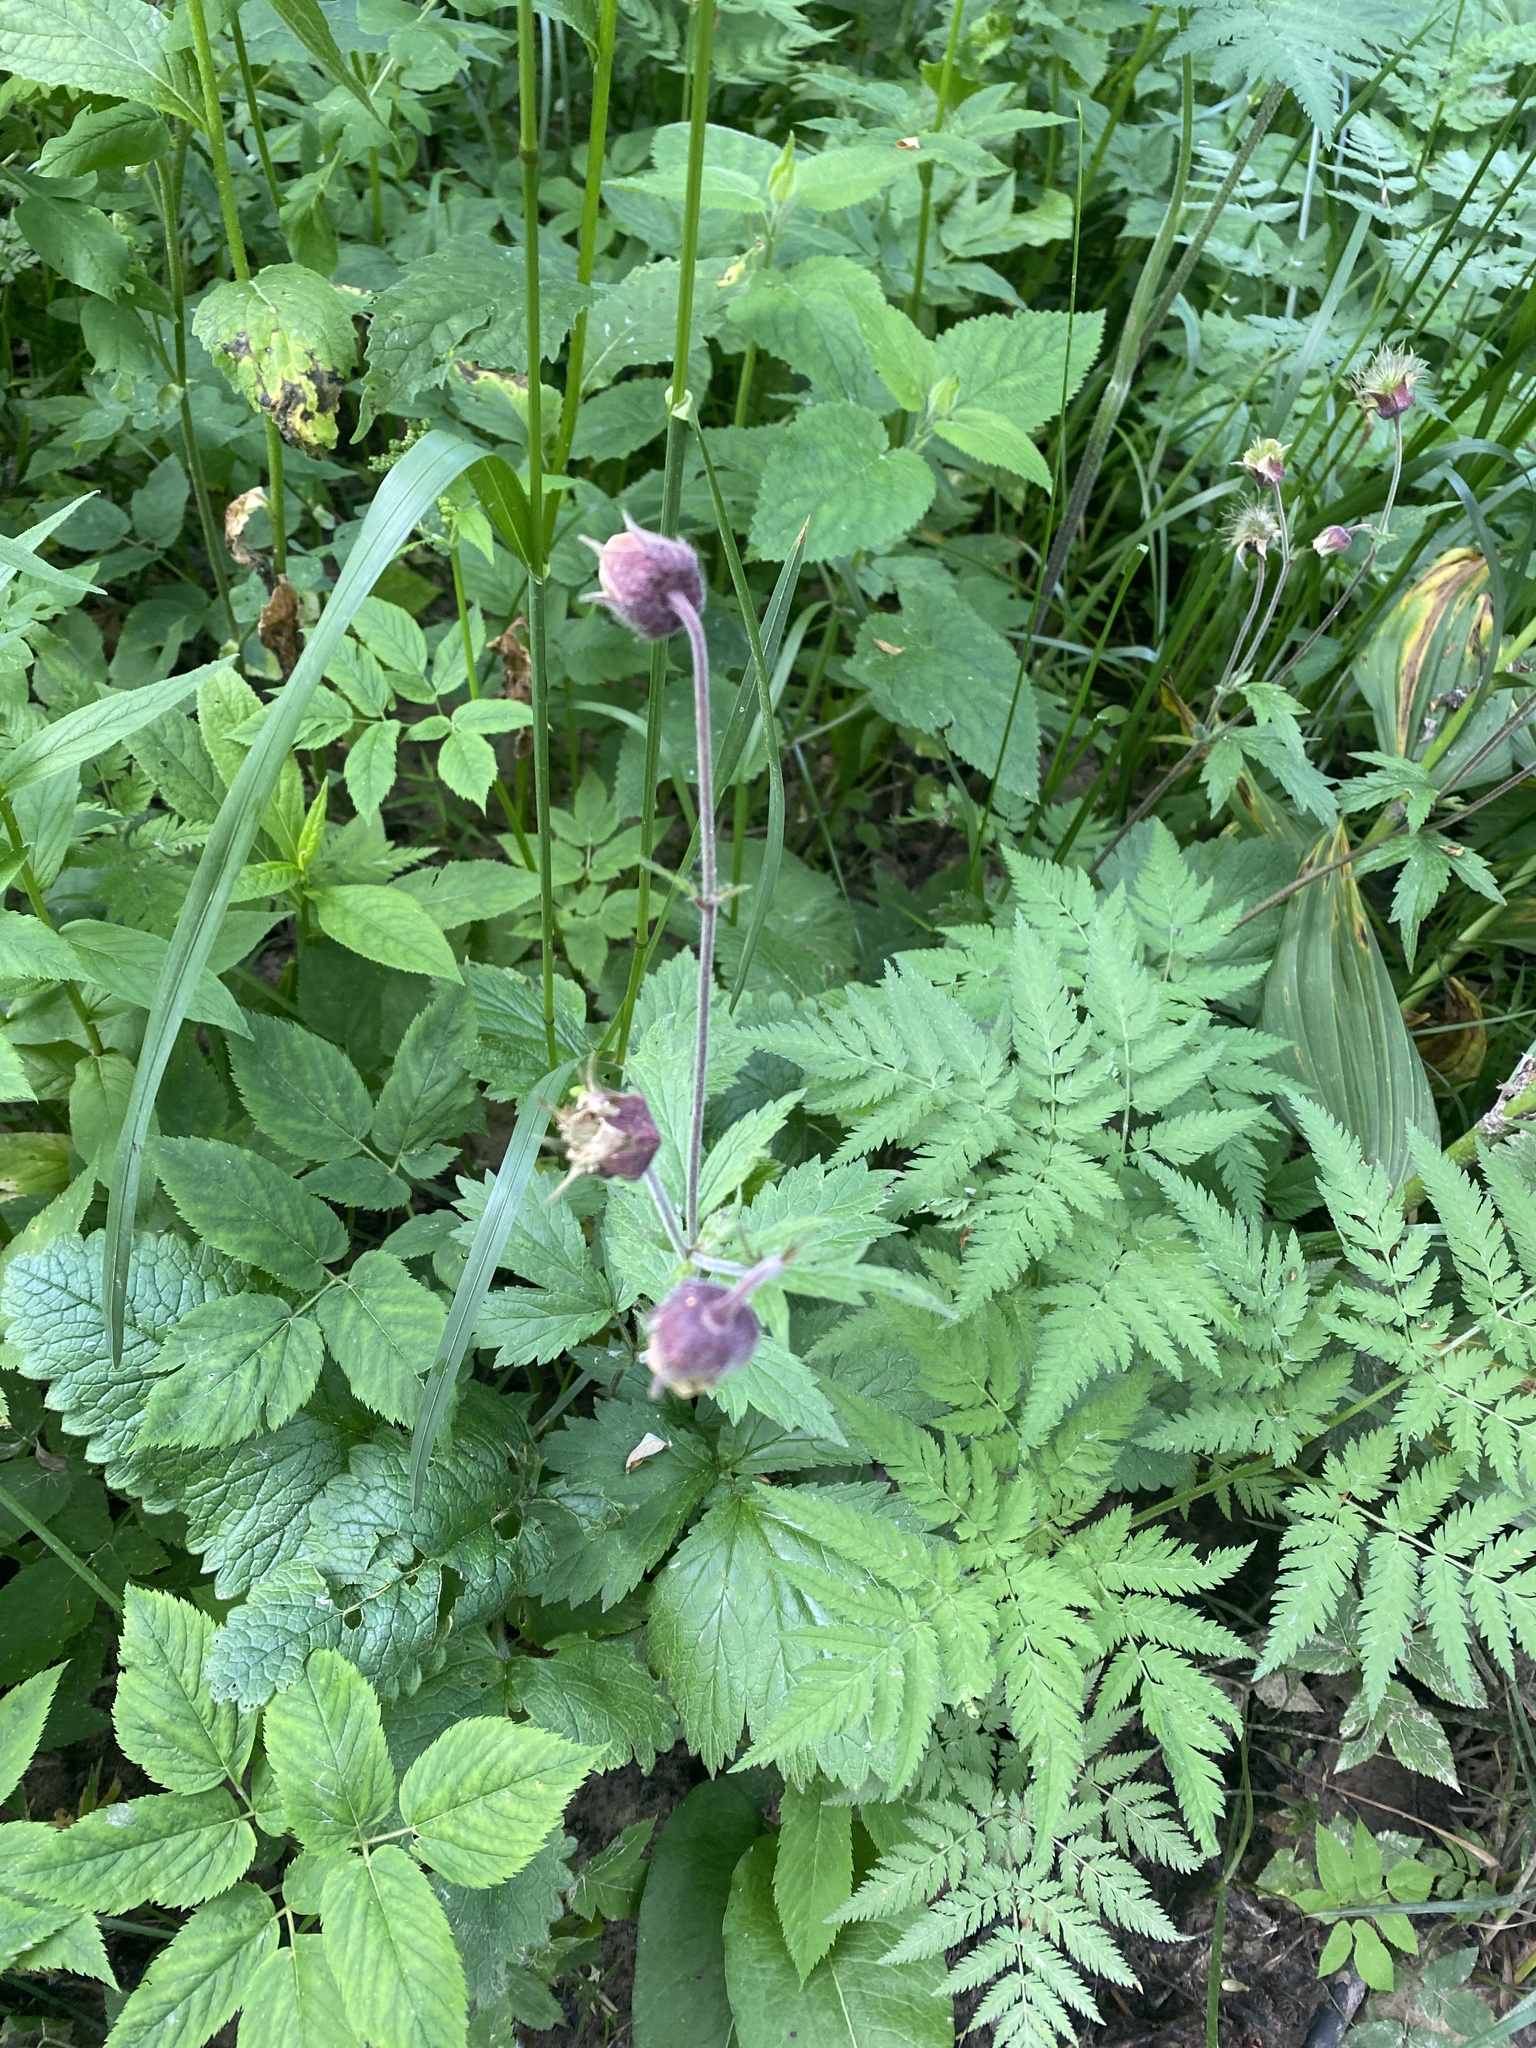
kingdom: Plantae
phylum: Tracheophyta
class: Magnoliopsida
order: Rosales
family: Rosaceae
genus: Geum
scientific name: Geum rivale
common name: Water avens
